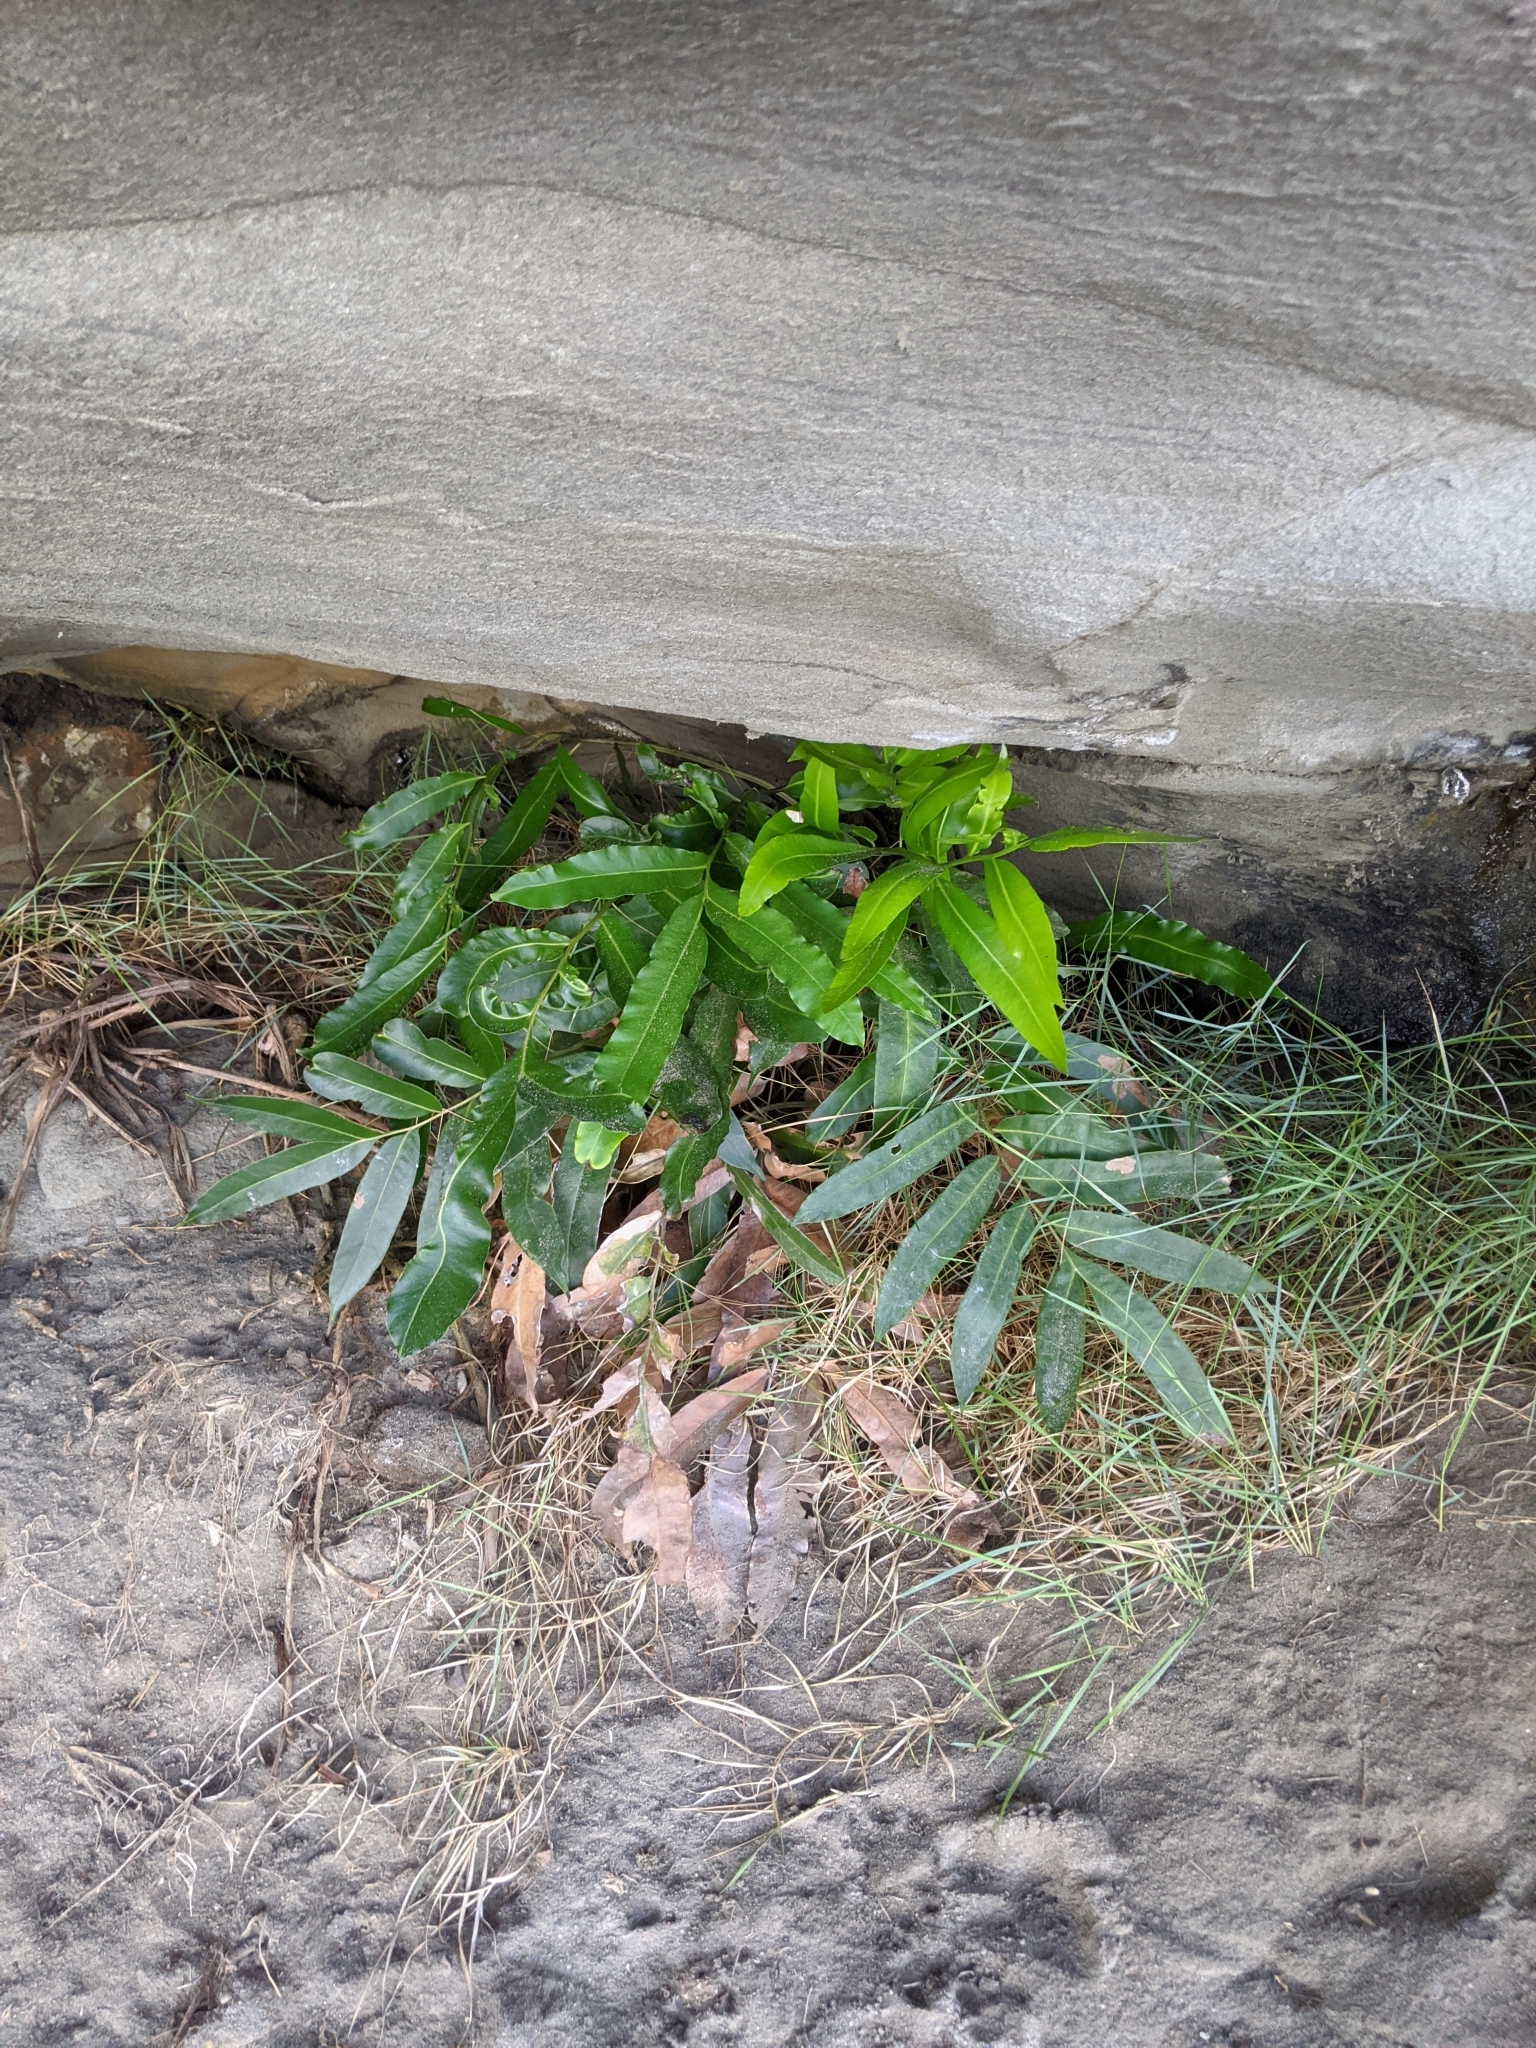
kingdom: Plantae
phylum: Tracheophyta
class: Polypodiopsida
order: Polypodiales
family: Pteridaceae
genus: Acrostichum
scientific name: Acrostichum speciosum
